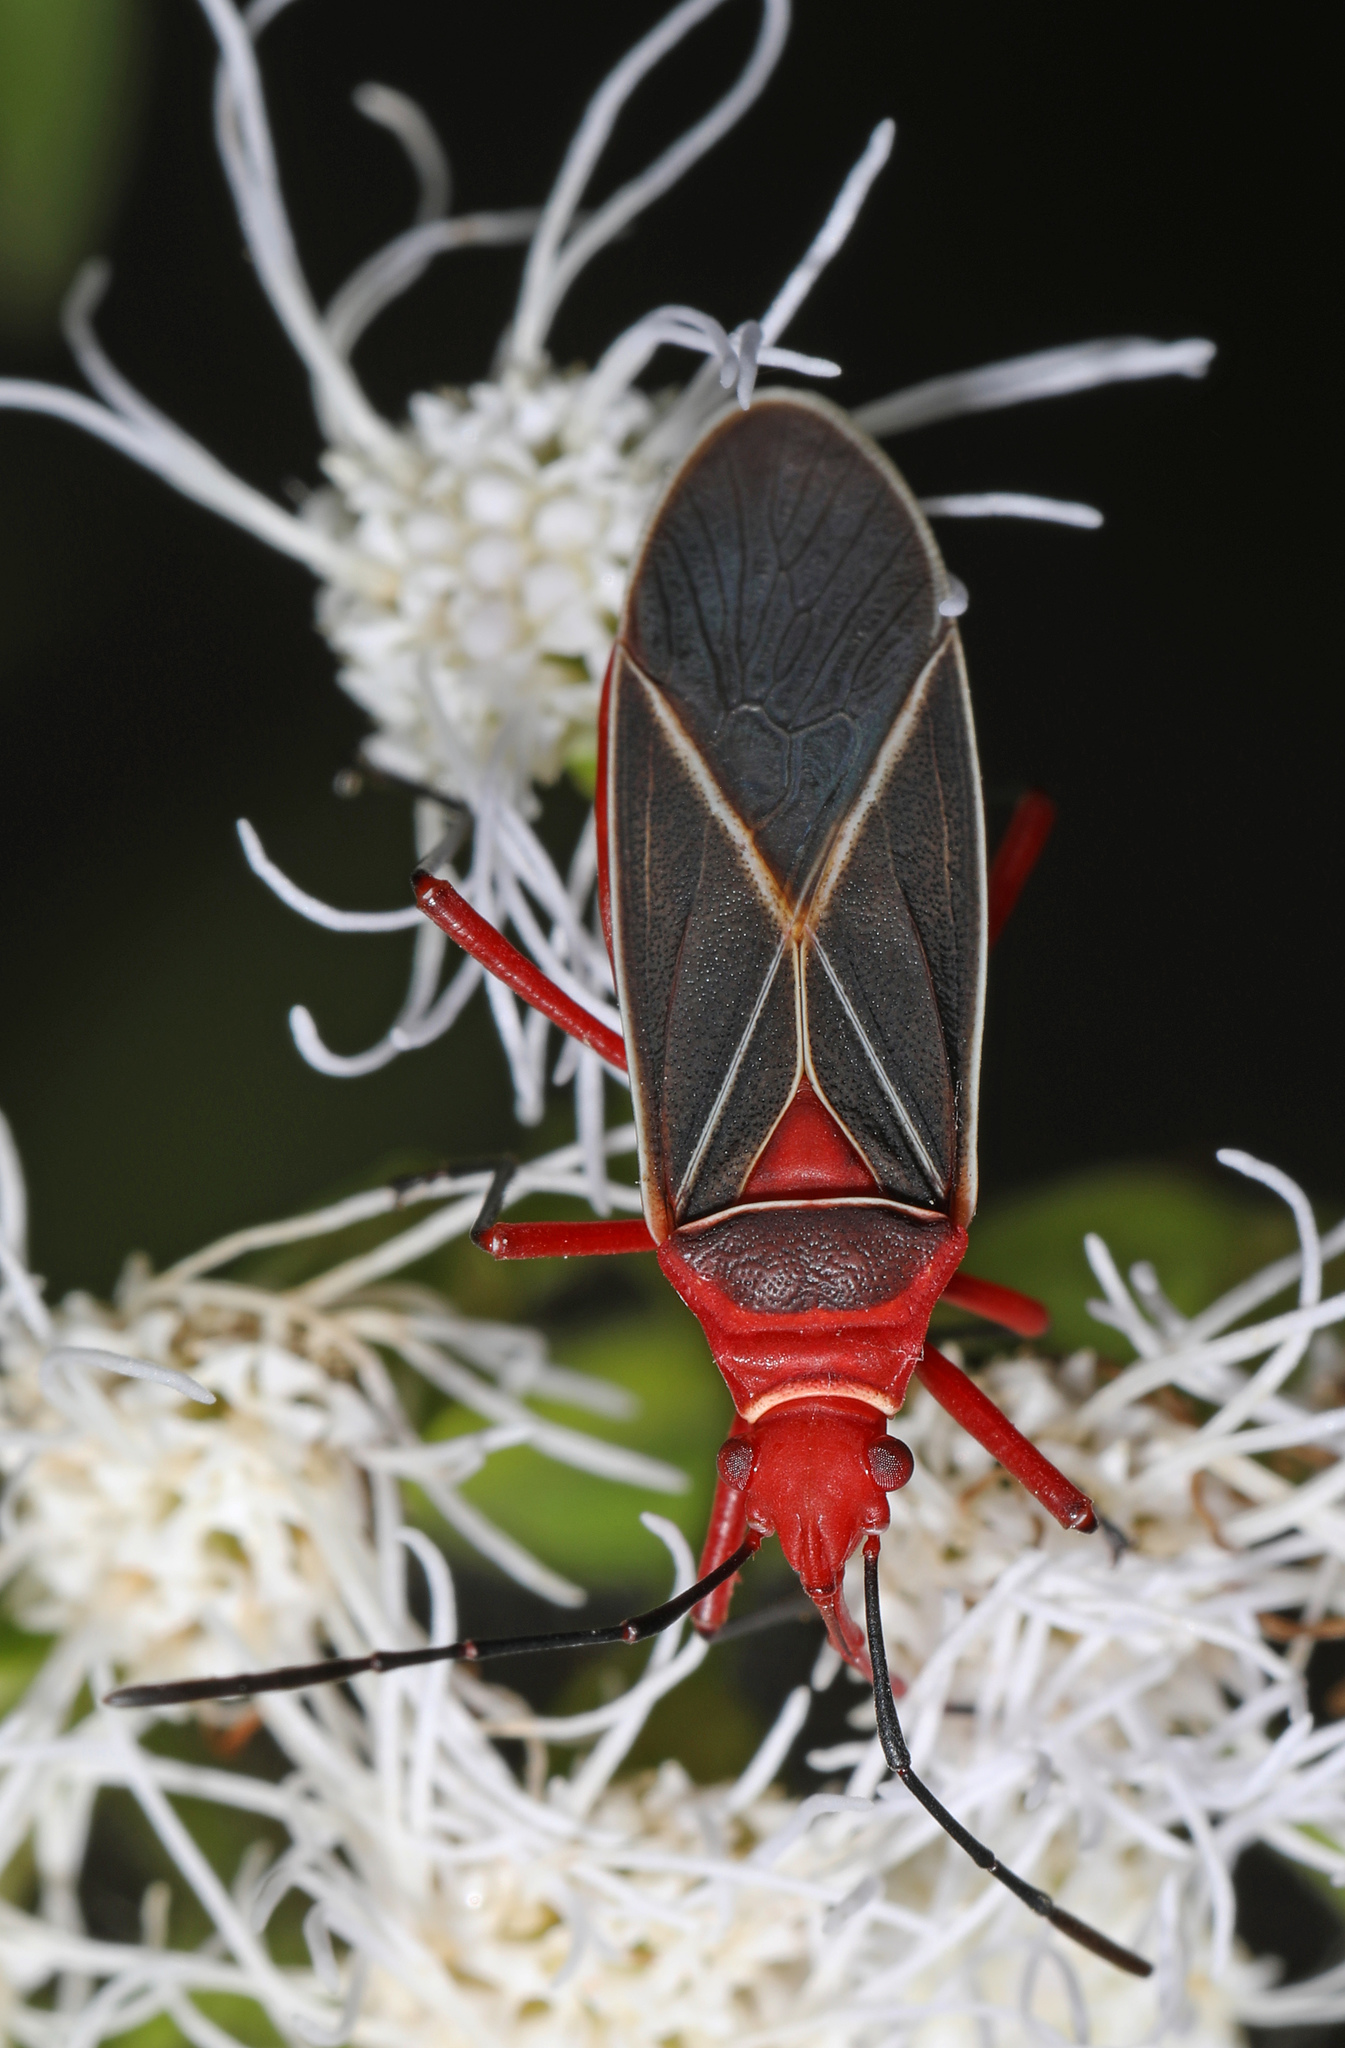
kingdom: Animalia
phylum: Arthropoda
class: Insecta
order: Hemiptera
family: Pyrrhocoridae
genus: Dysdercus
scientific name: Dysdercus suturellus
